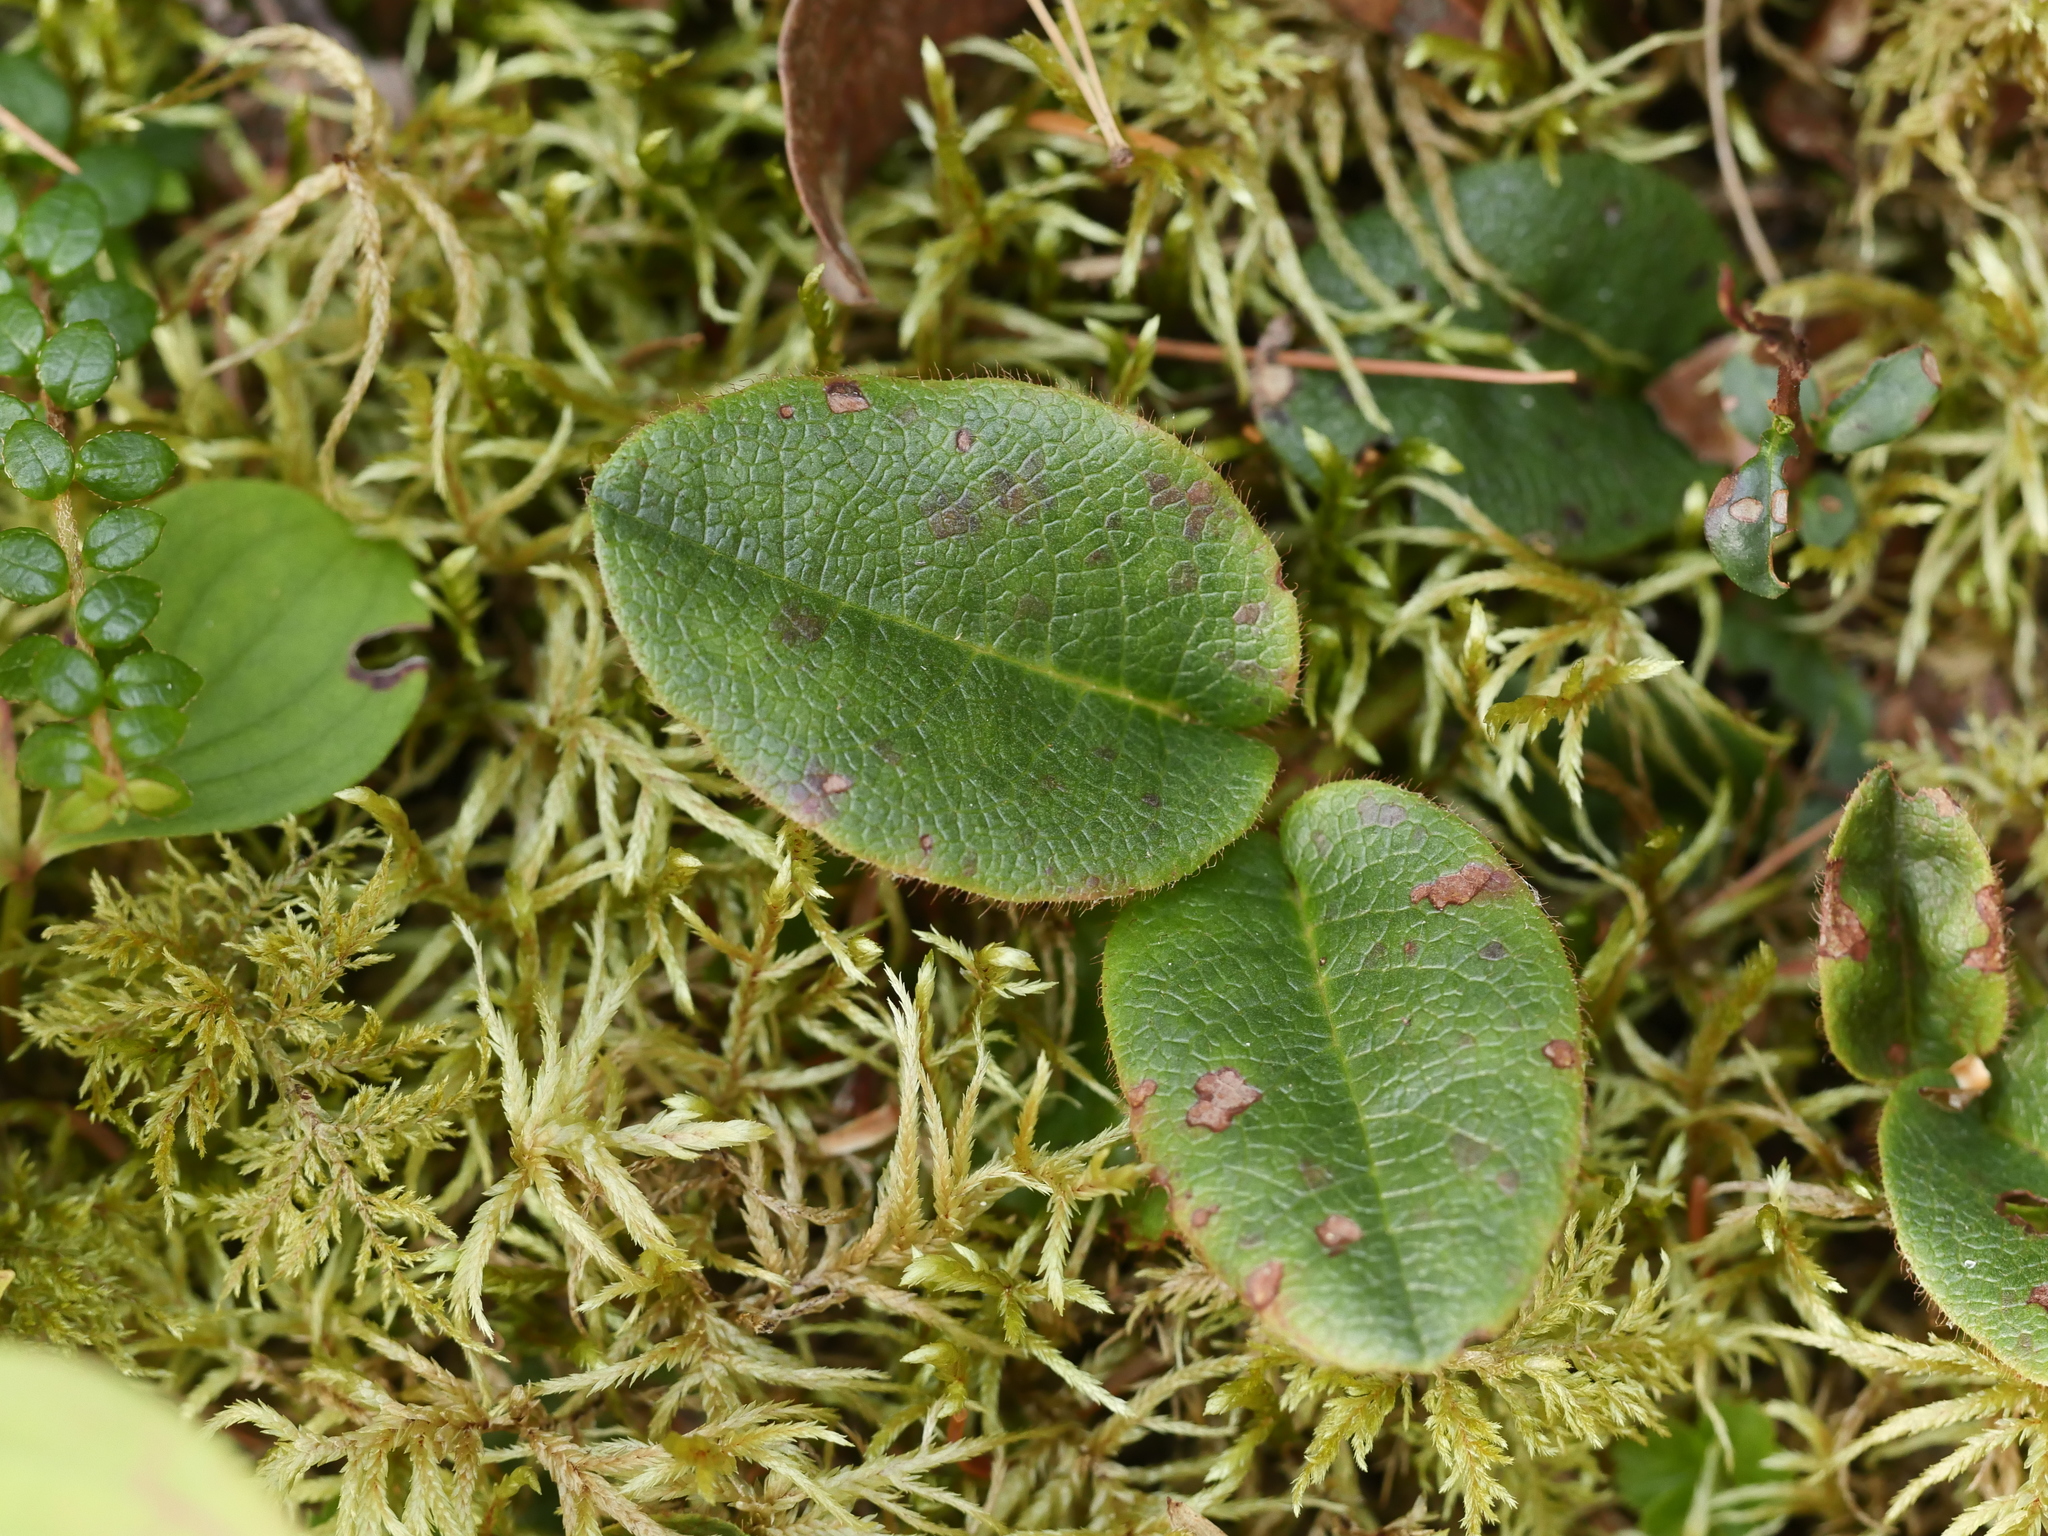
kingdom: Plantae
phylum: Tracheophyta
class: Magnoliopsida
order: Ericales
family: Ericaceae
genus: Epigaea
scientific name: Epigaea repens
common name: Gravelroot
